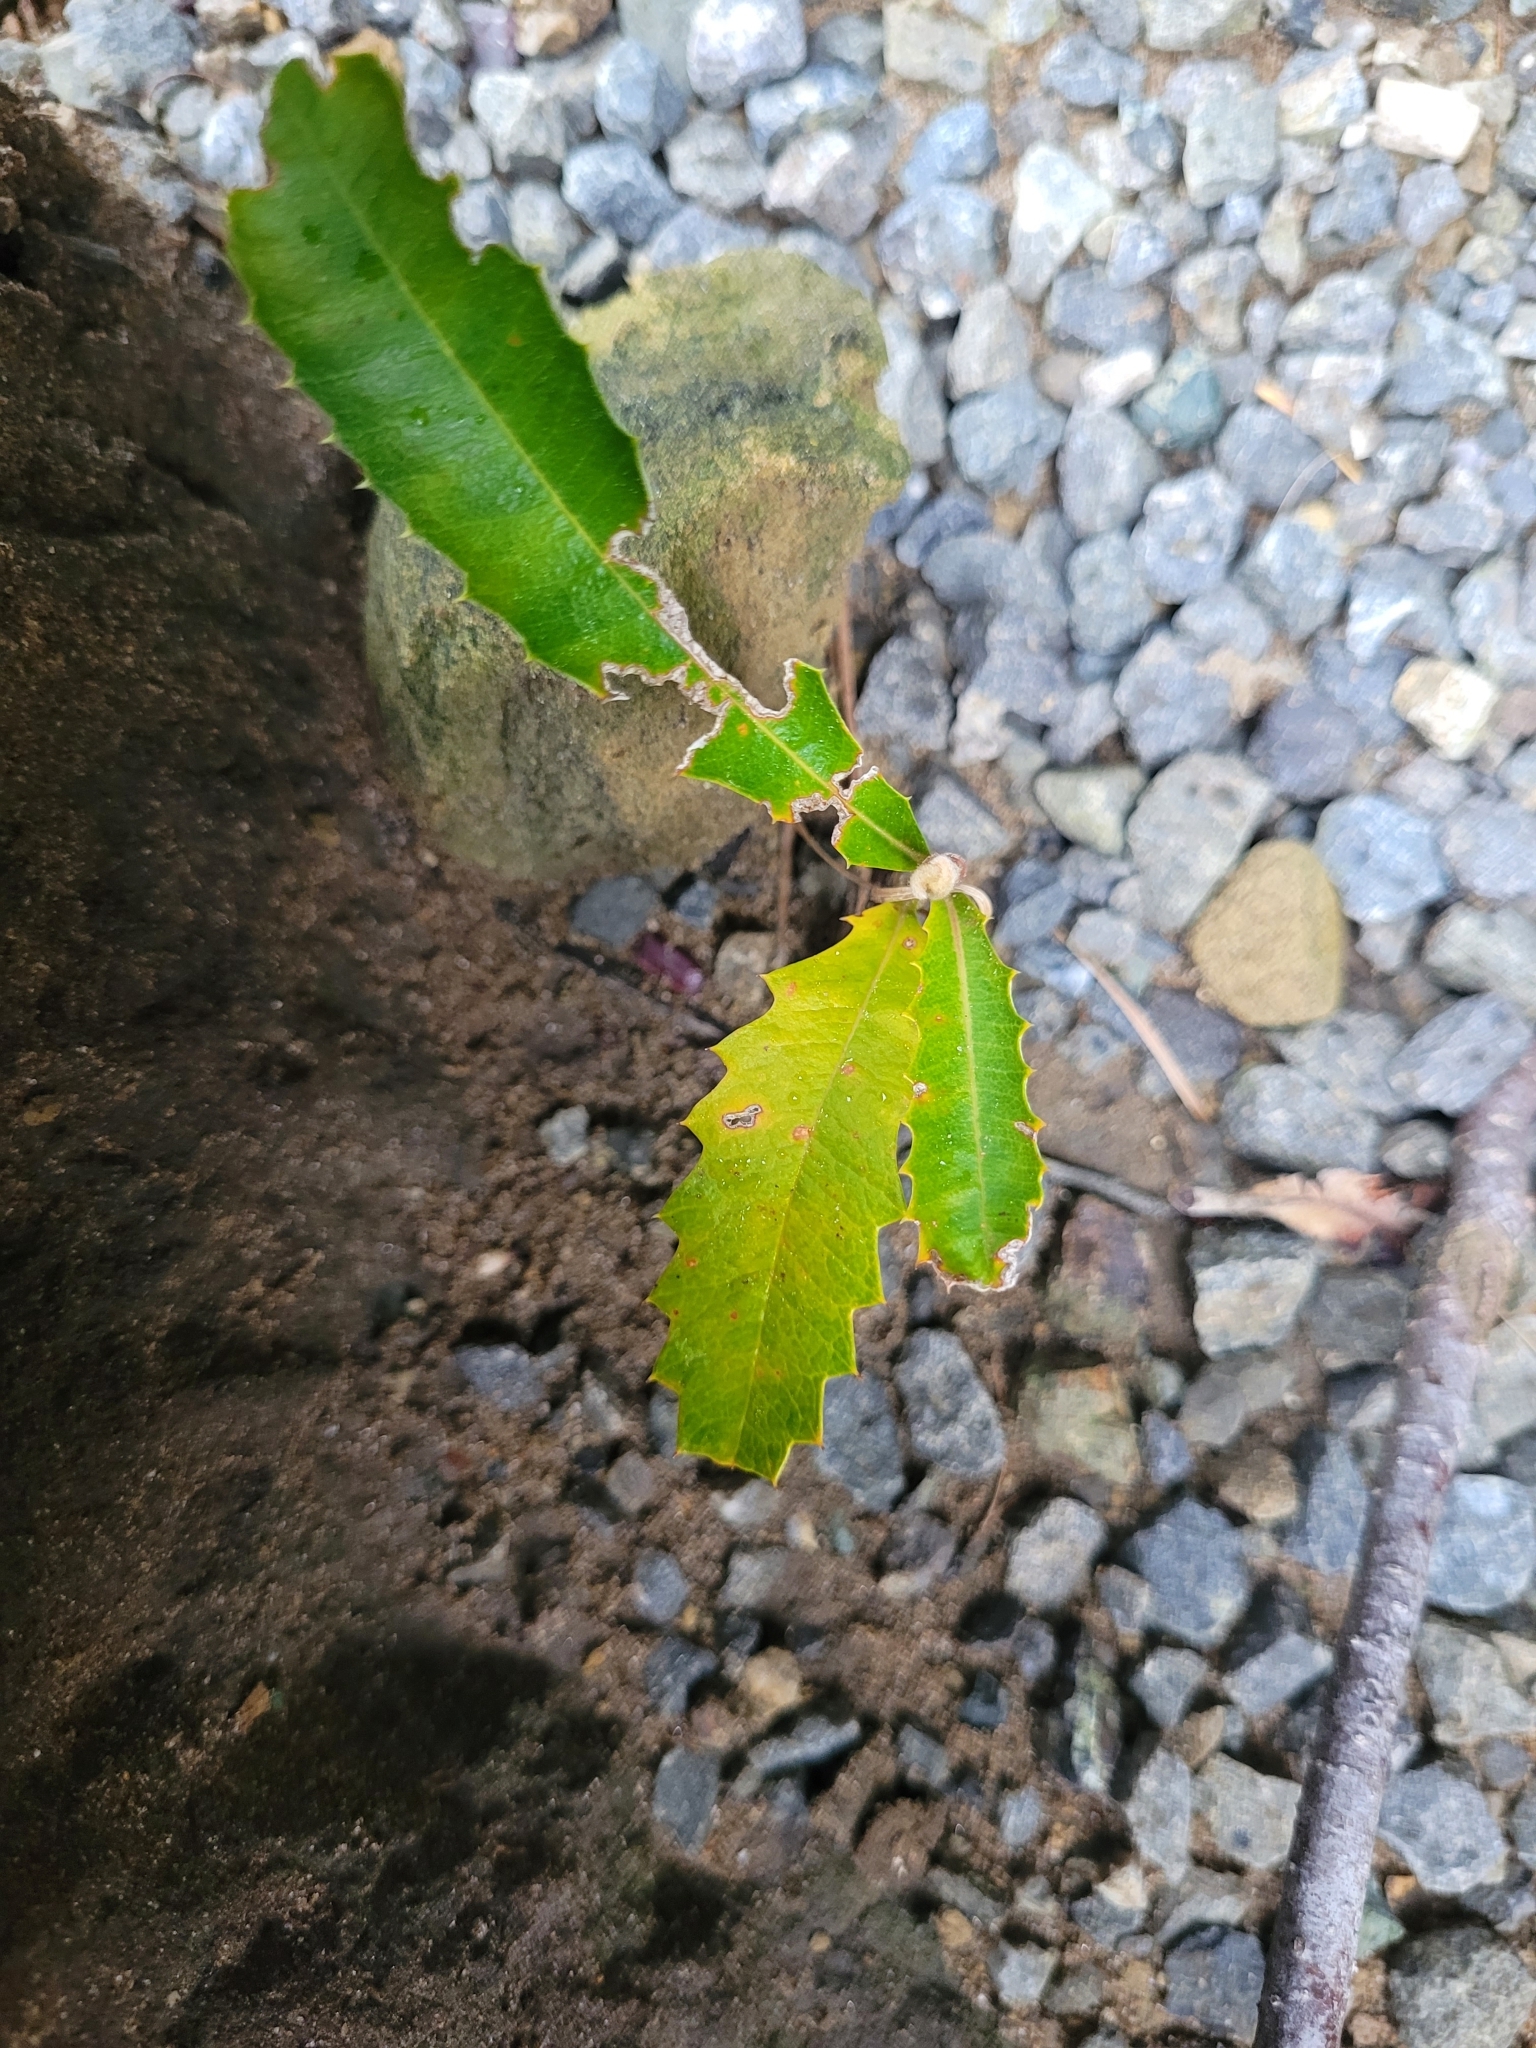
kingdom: Plantae
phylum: Tracheophyta
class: Magnoliopsida
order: Proteales
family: Proteaceae
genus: Banksia
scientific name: Banksia integrifolia
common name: White-honeysuckle
